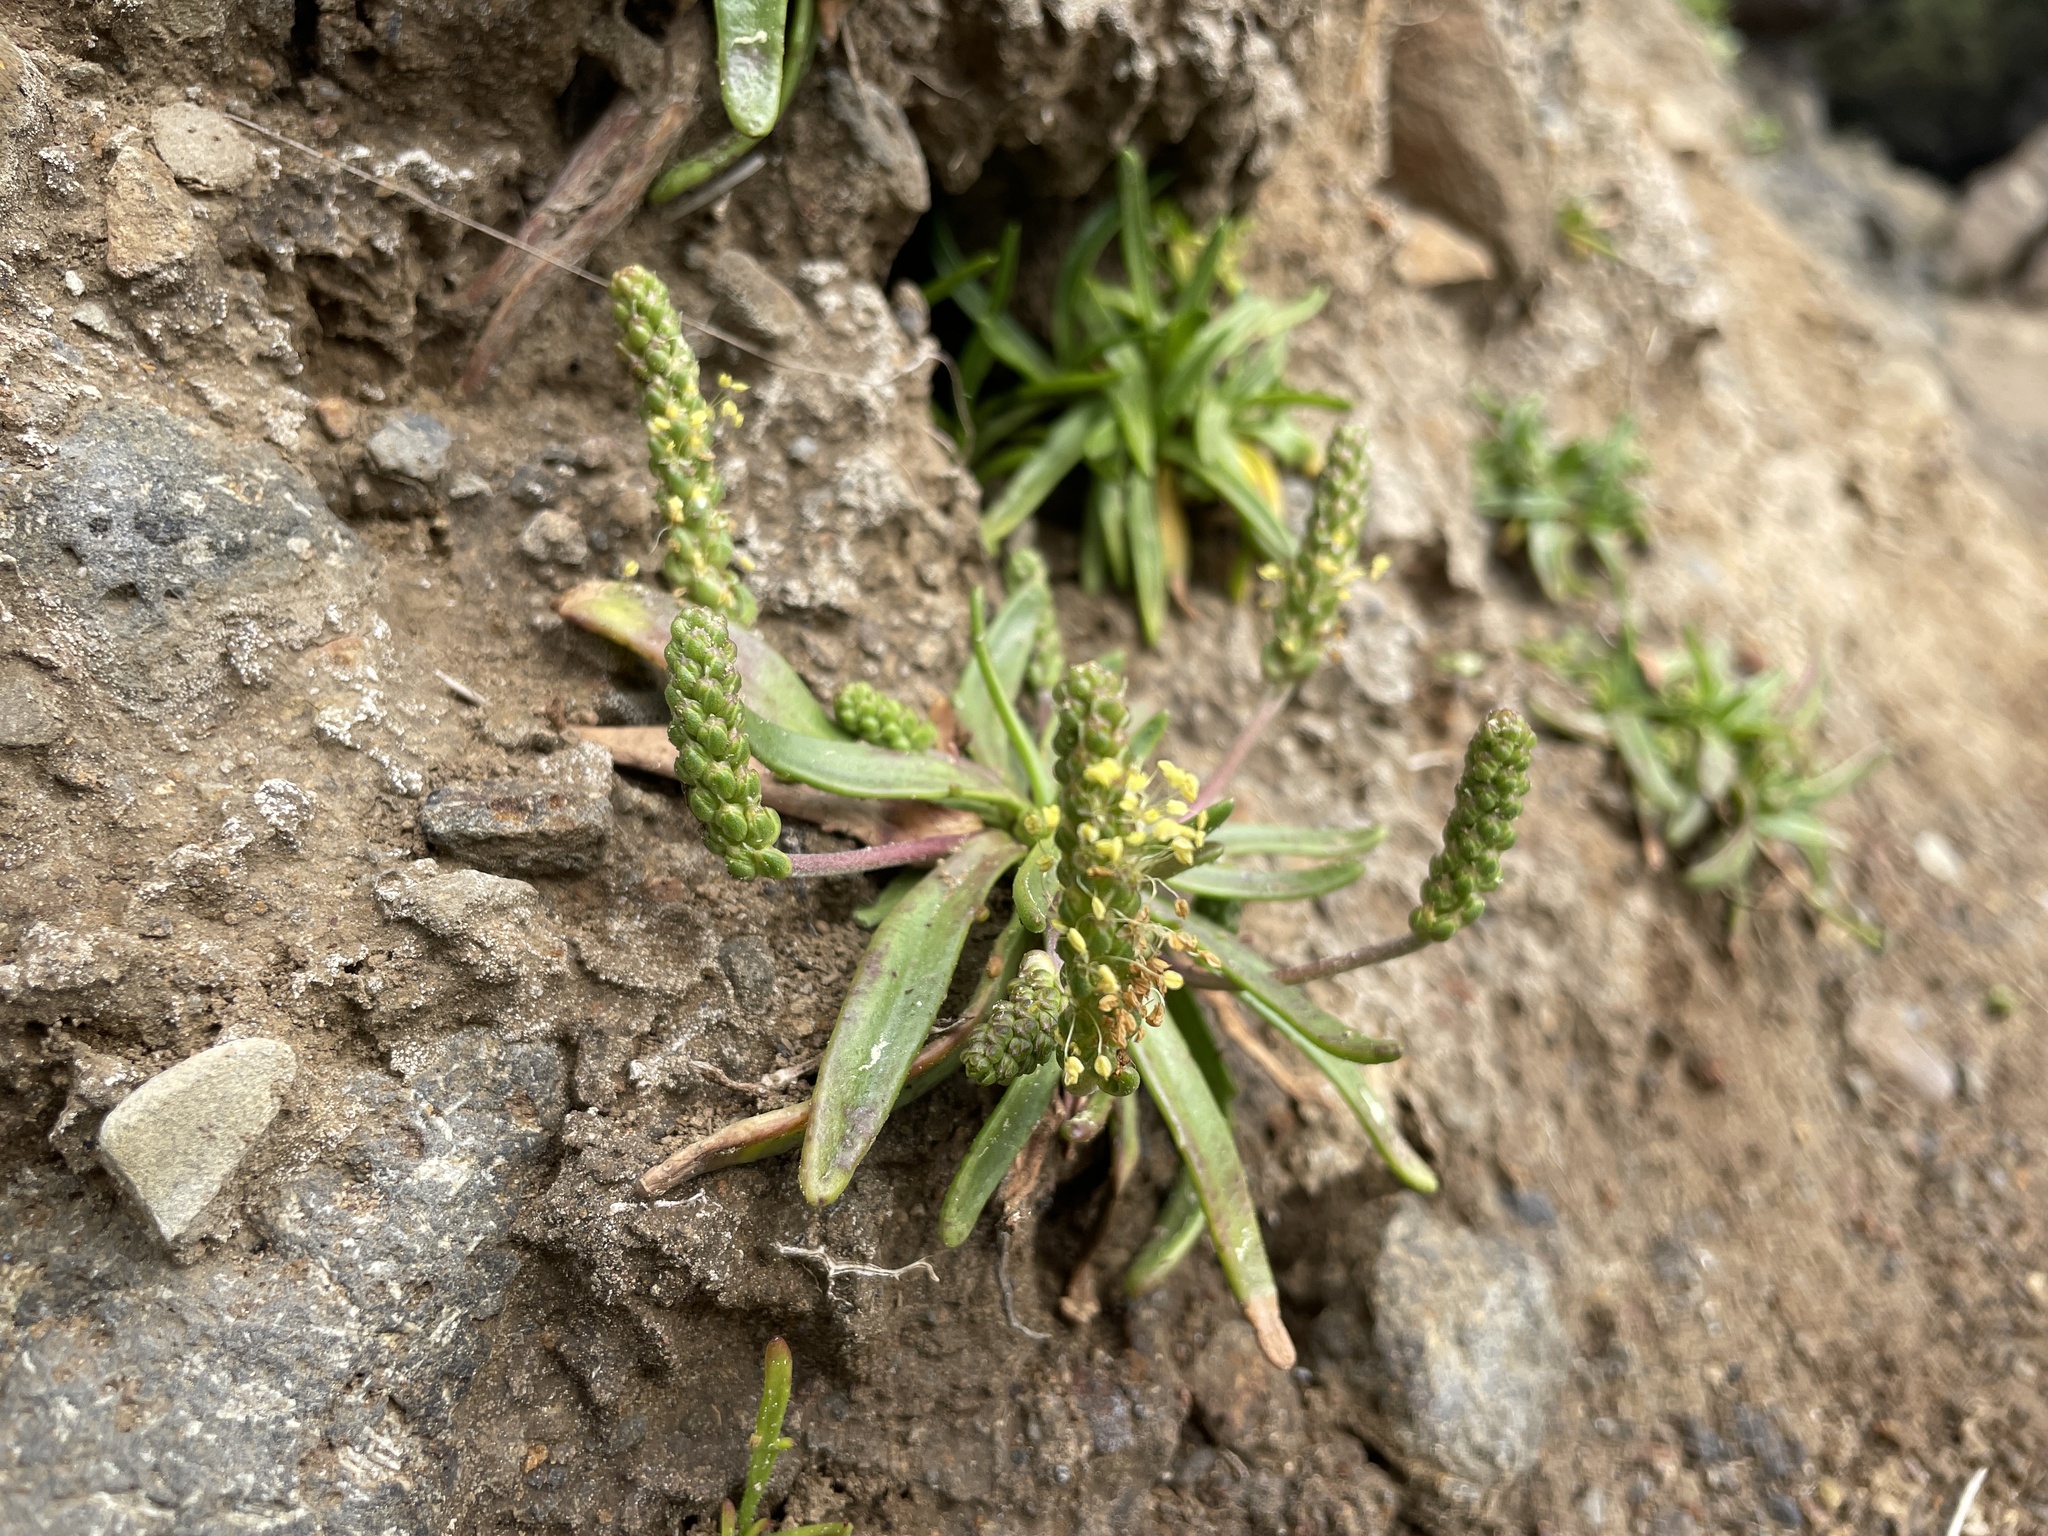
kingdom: Plantae
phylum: Tracheophyta
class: Magnoliopsida
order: Lamiales
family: Plantaginaceae
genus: Plantago
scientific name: Plantago maritima
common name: Sea plantain
